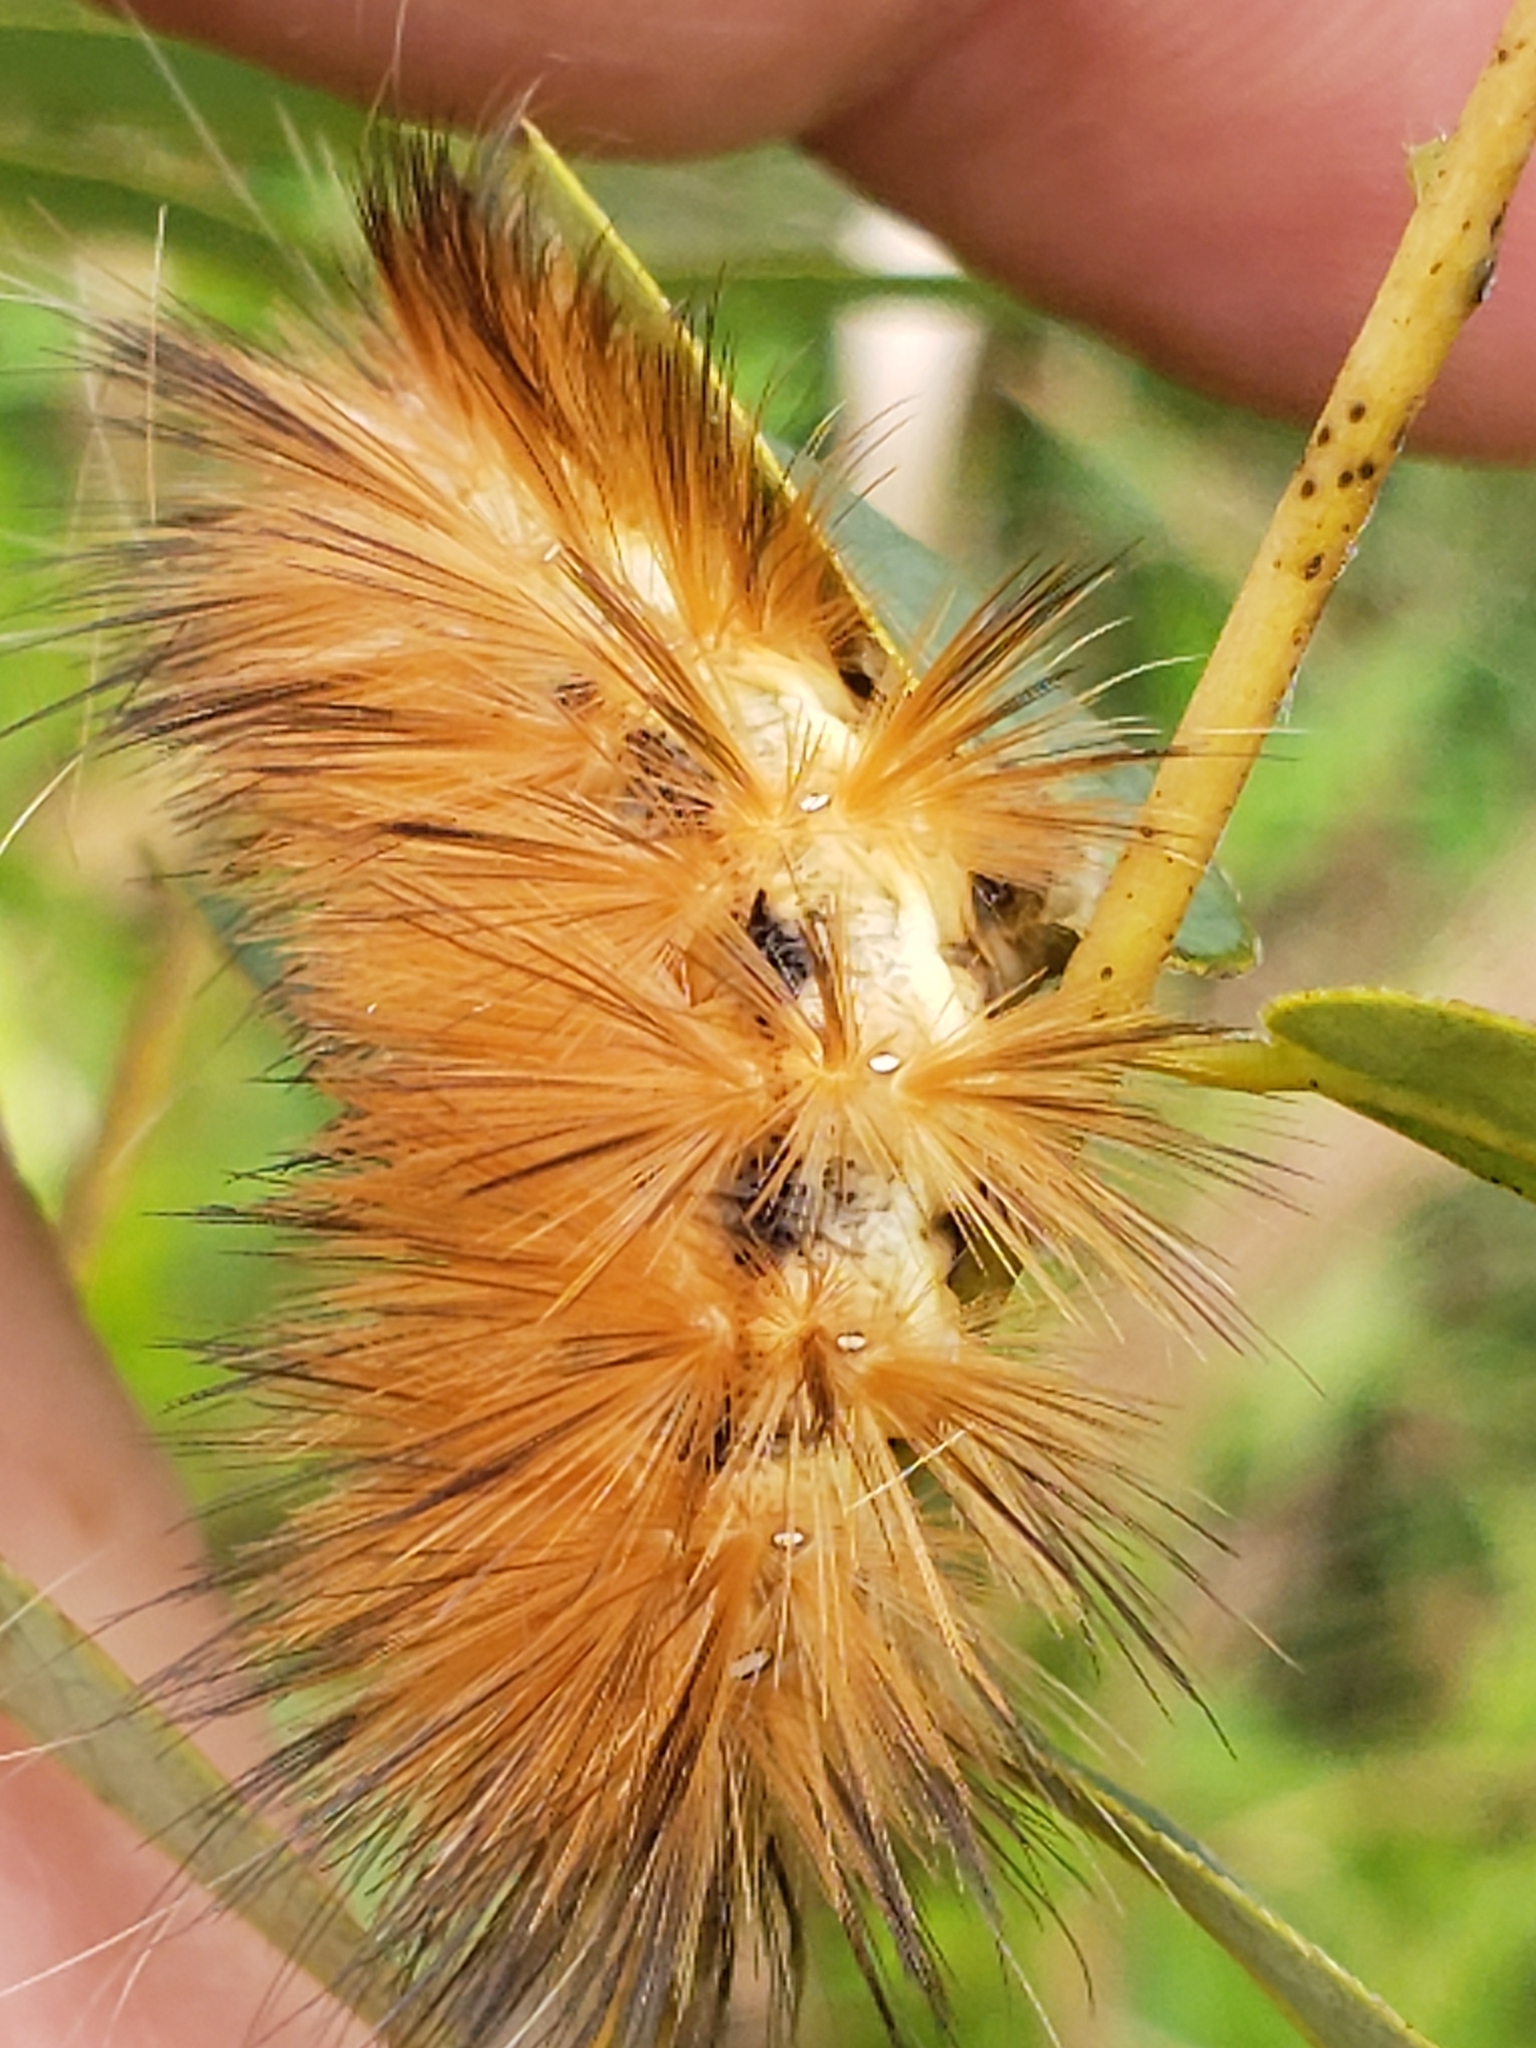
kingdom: Animalia
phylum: Arthropoda
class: Insecta
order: Lepidoptera
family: Erebidae
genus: Spilosoma
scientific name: Spilosoma virginica
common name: Virginia tiger moth
